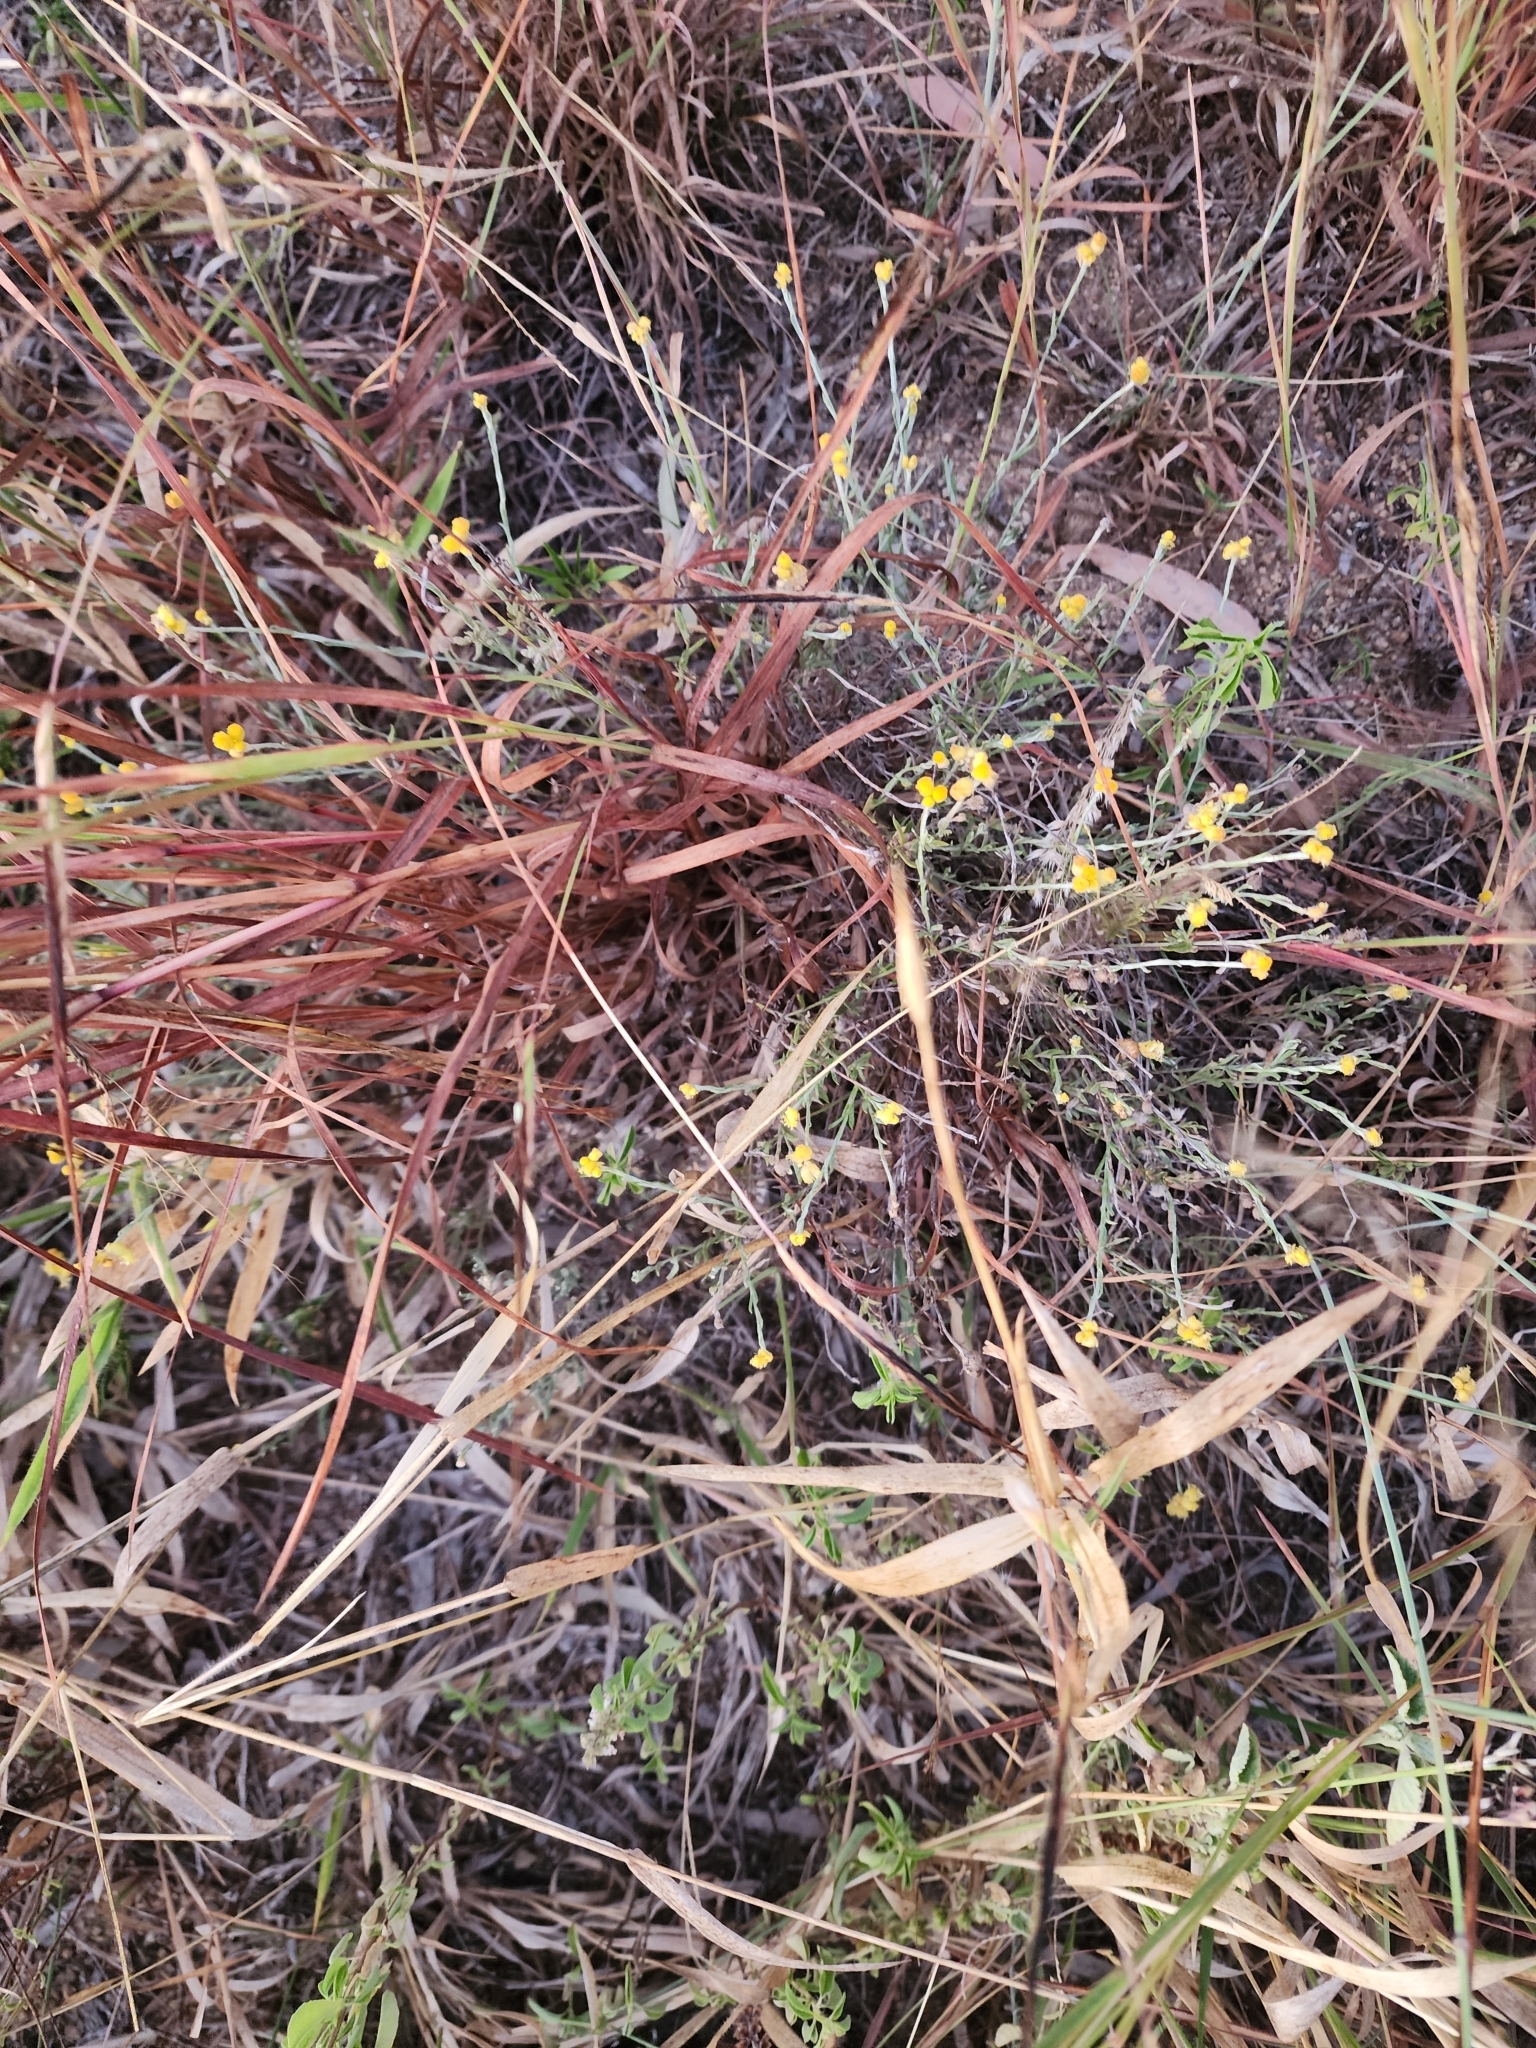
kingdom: Plantae
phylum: Tracheophyta
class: Magnoliopsida
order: Asterales
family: Asteraceae
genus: Chrysocephalum
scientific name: Chrysocephalum apiculatum
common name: Common everlasting
